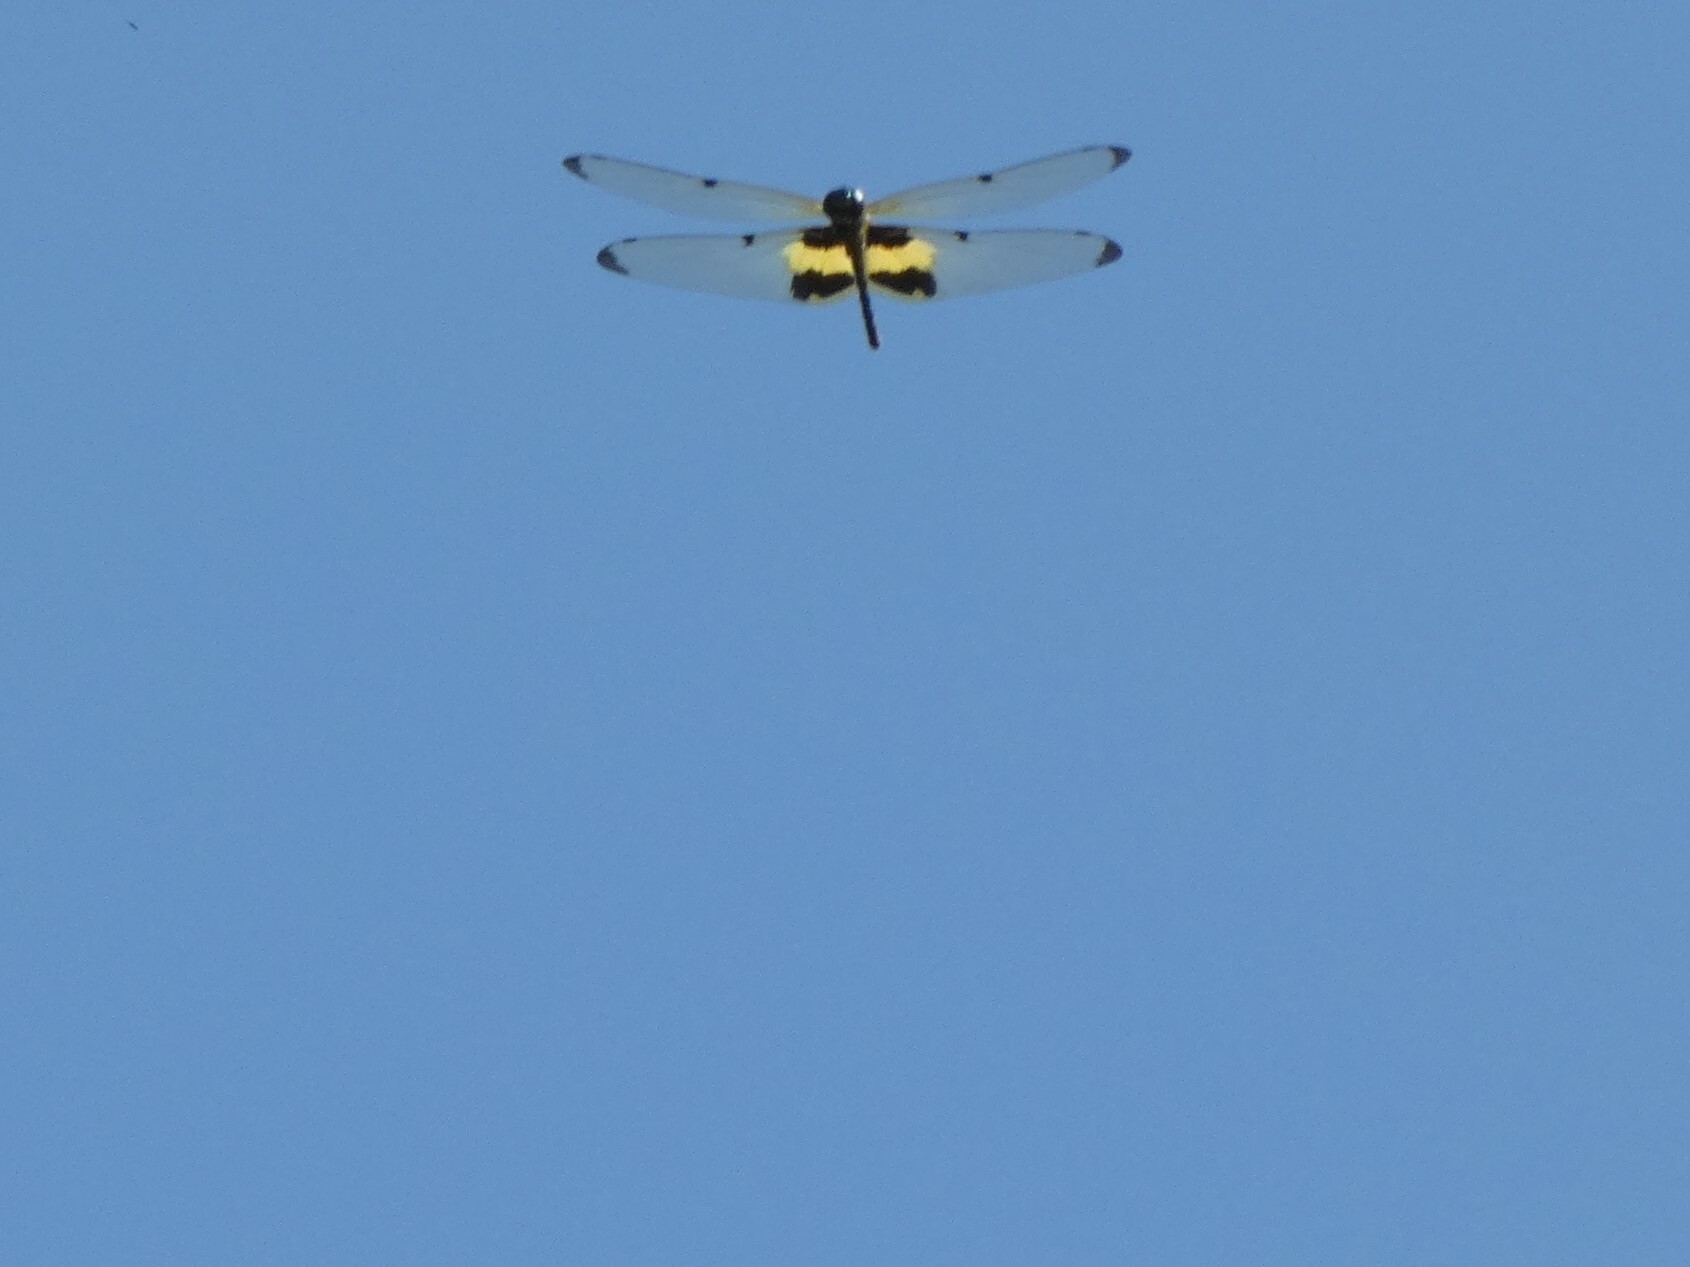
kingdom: Animalia
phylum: Arthropoda
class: Insecta
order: Odonata
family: Libellulidae
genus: Rhyothemis
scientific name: Rhyothemis phyllis
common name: Yellow-barred flutterer
